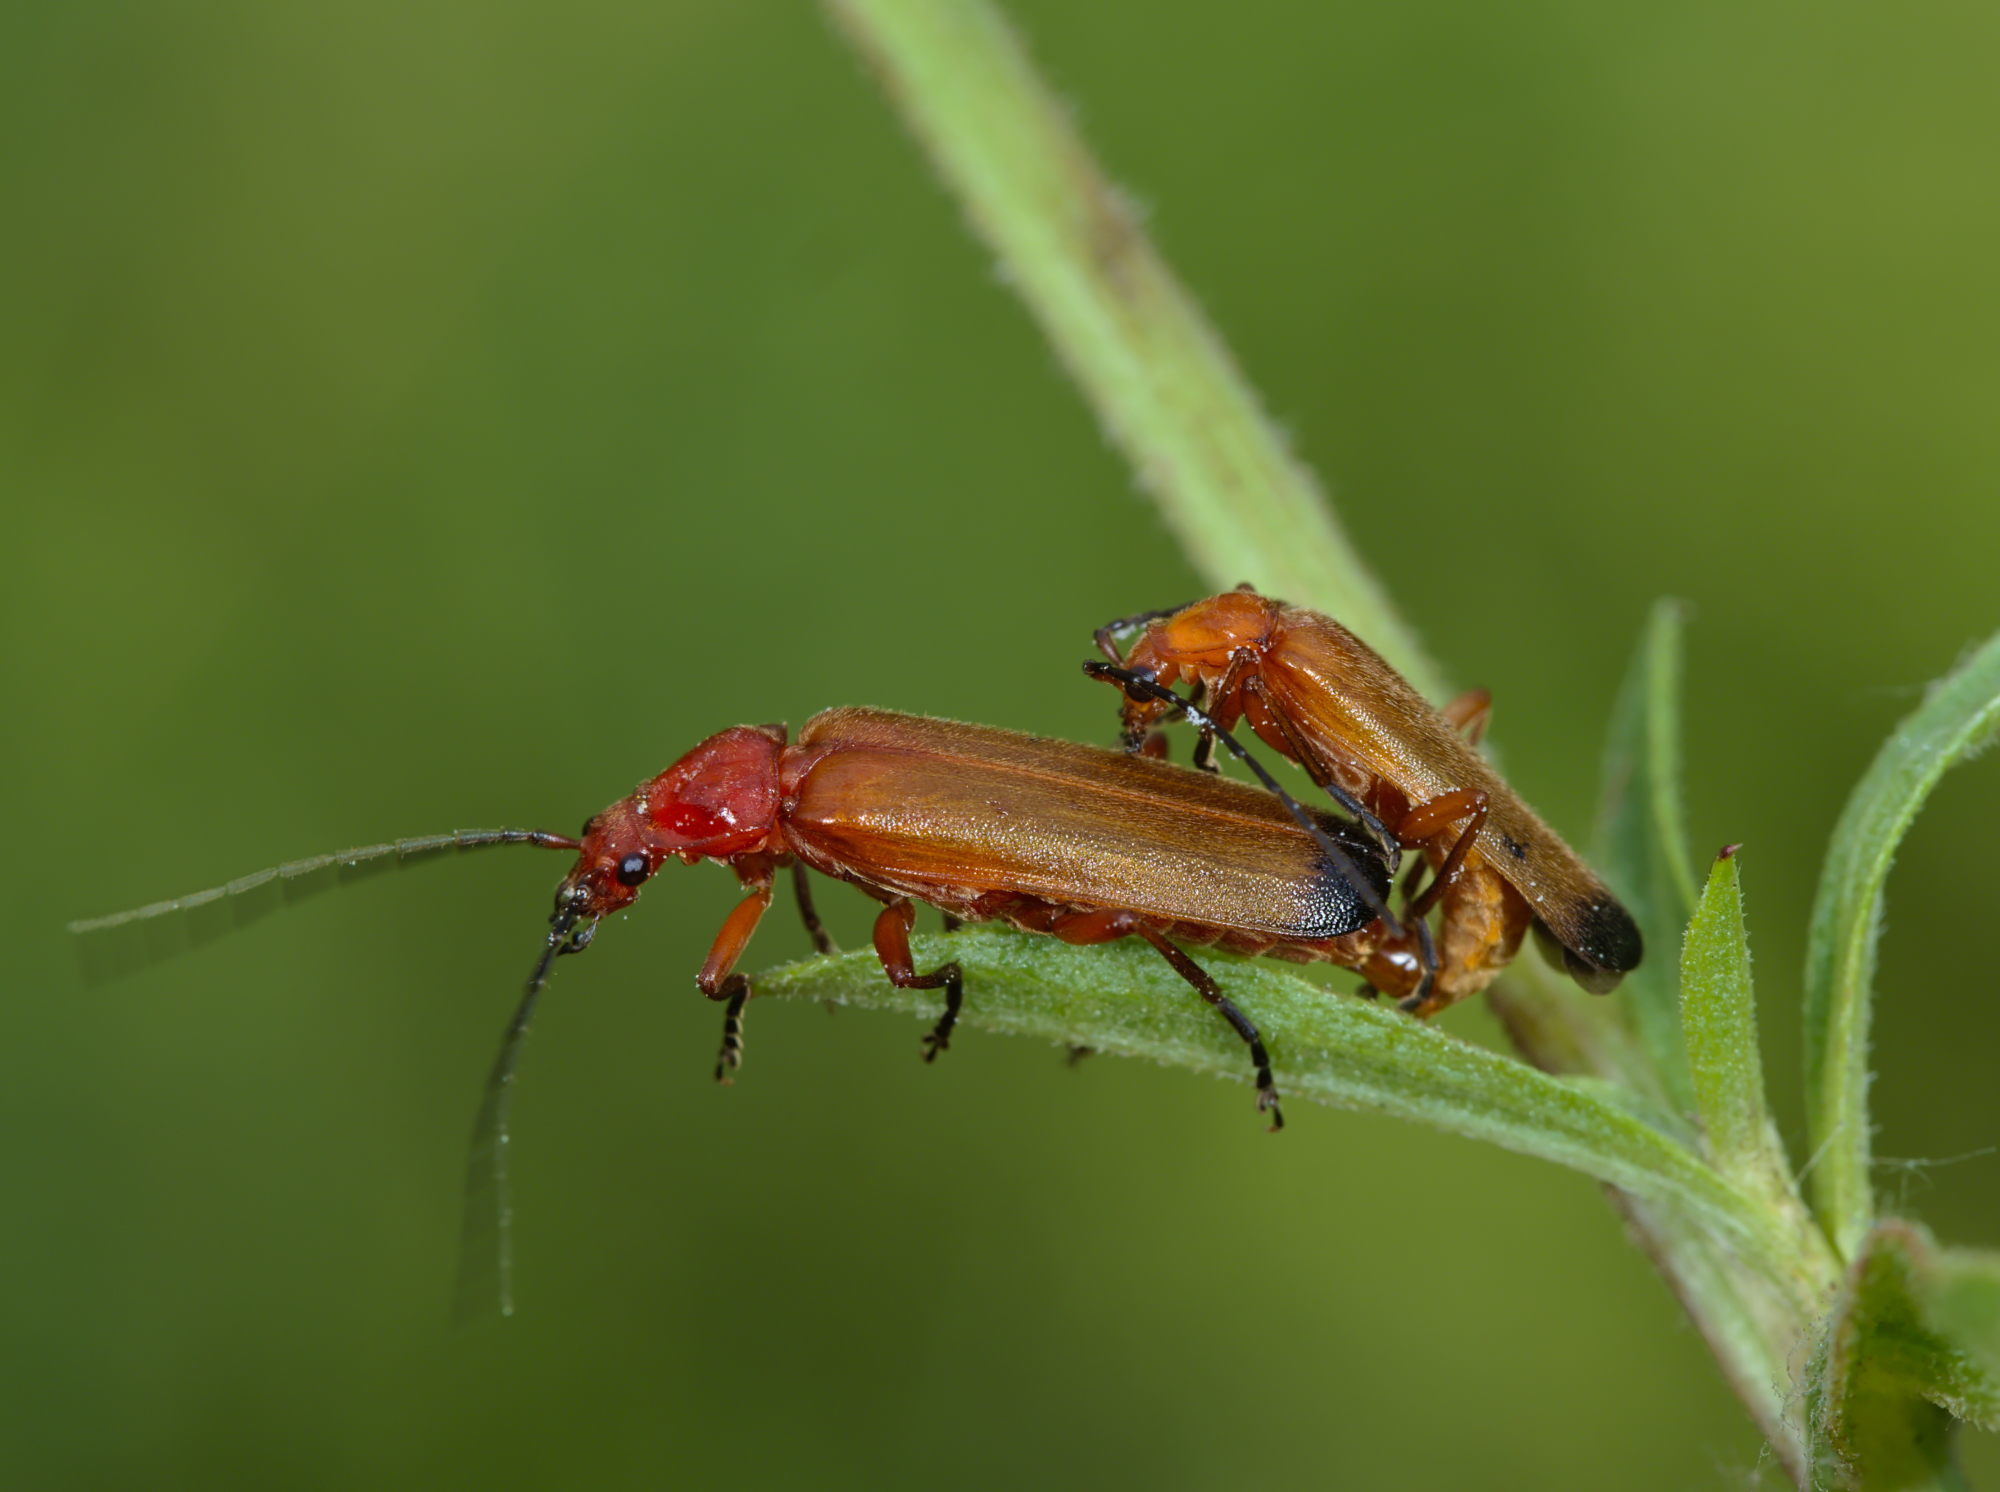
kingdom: Animalia
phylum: Arthropoda
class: Insecta
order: Coleoptera
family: Cantharidae
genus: Rhagonycha
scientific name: Rhagonycha fulva
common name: Common red soldier beetle
